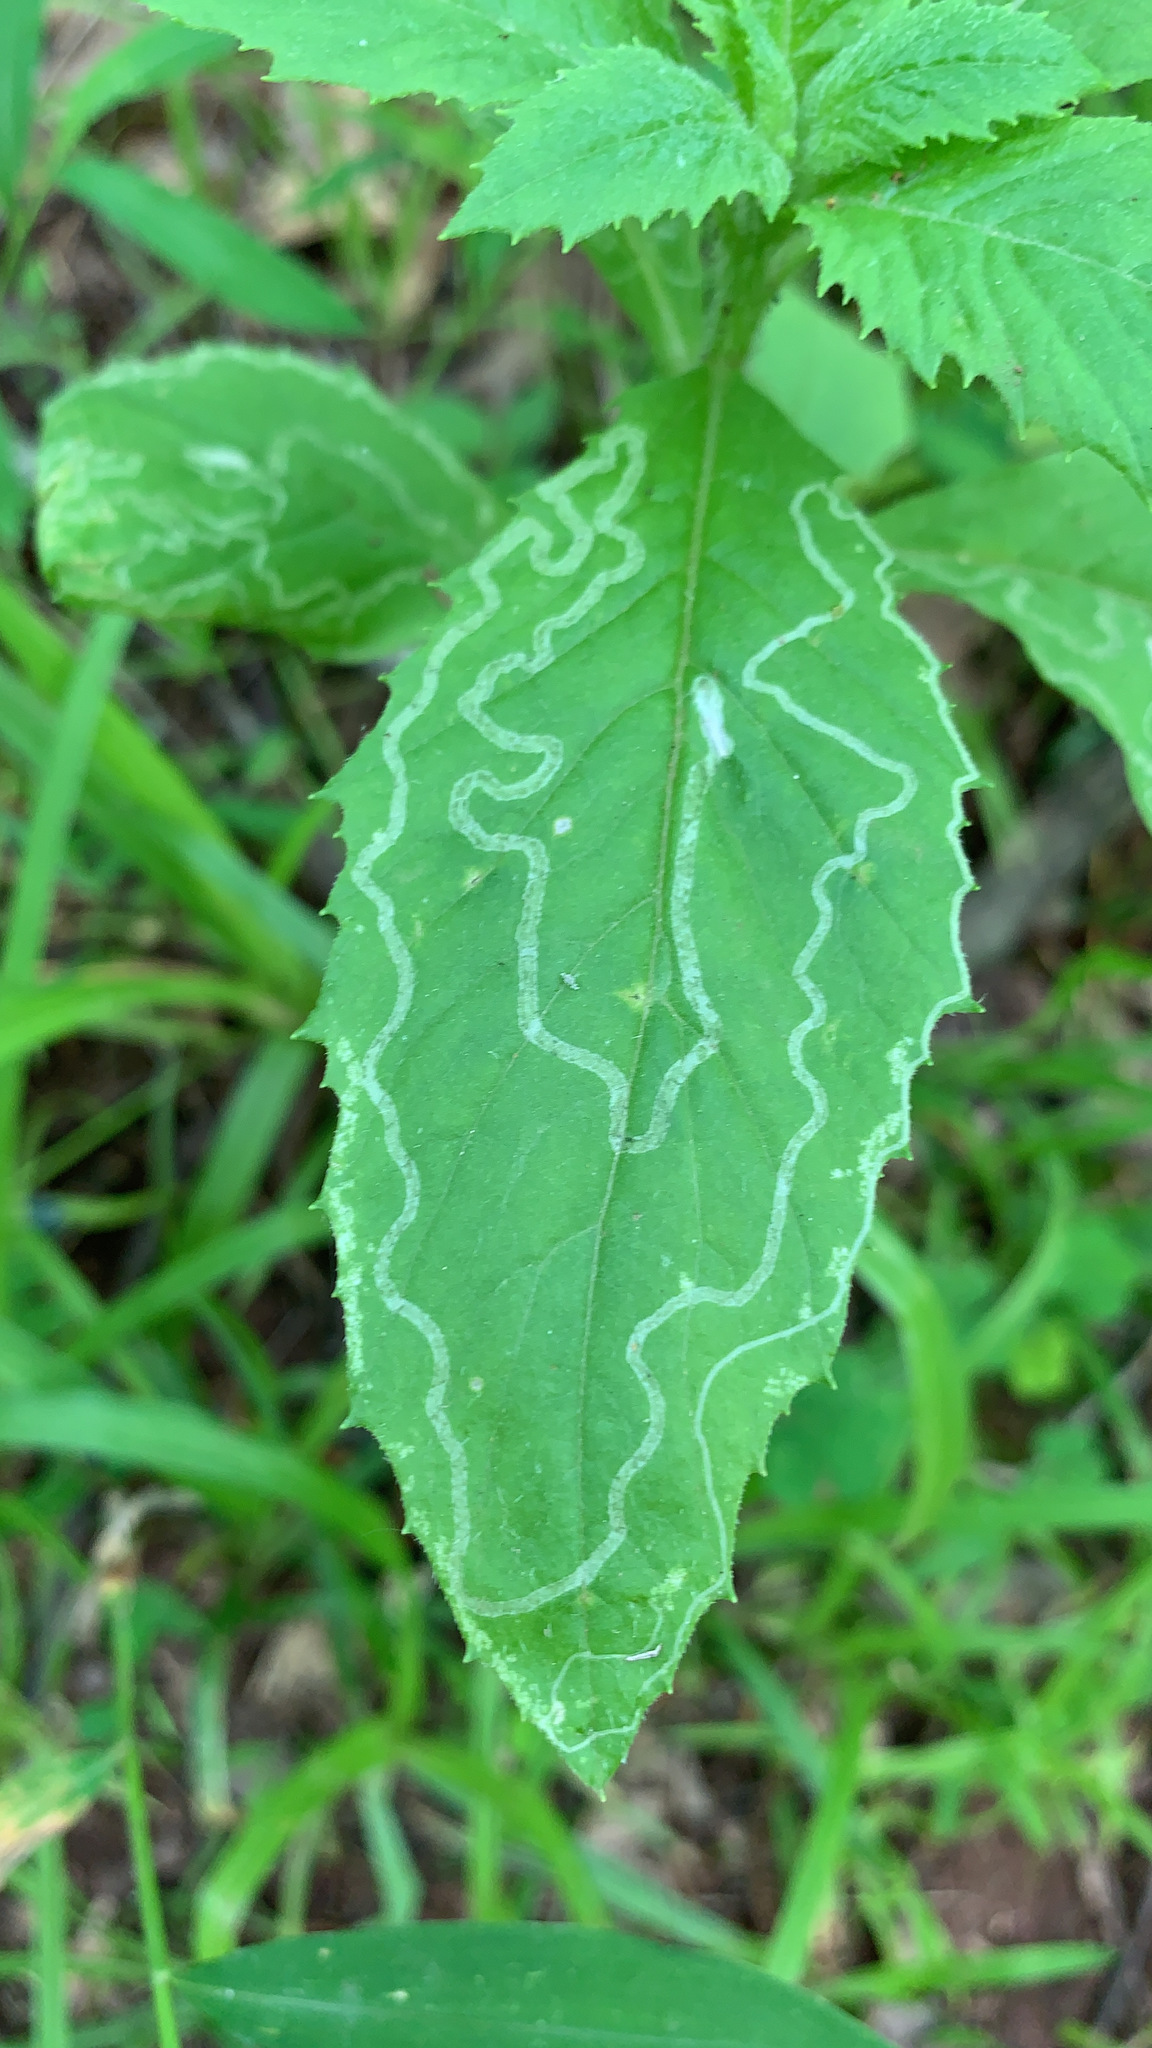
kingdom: Animalia
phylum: Arthropoda
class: Insecta
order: Lepidoptera
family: Gracillariidae
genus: Phyllocnistis
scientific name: Phyllocnistis insignis
